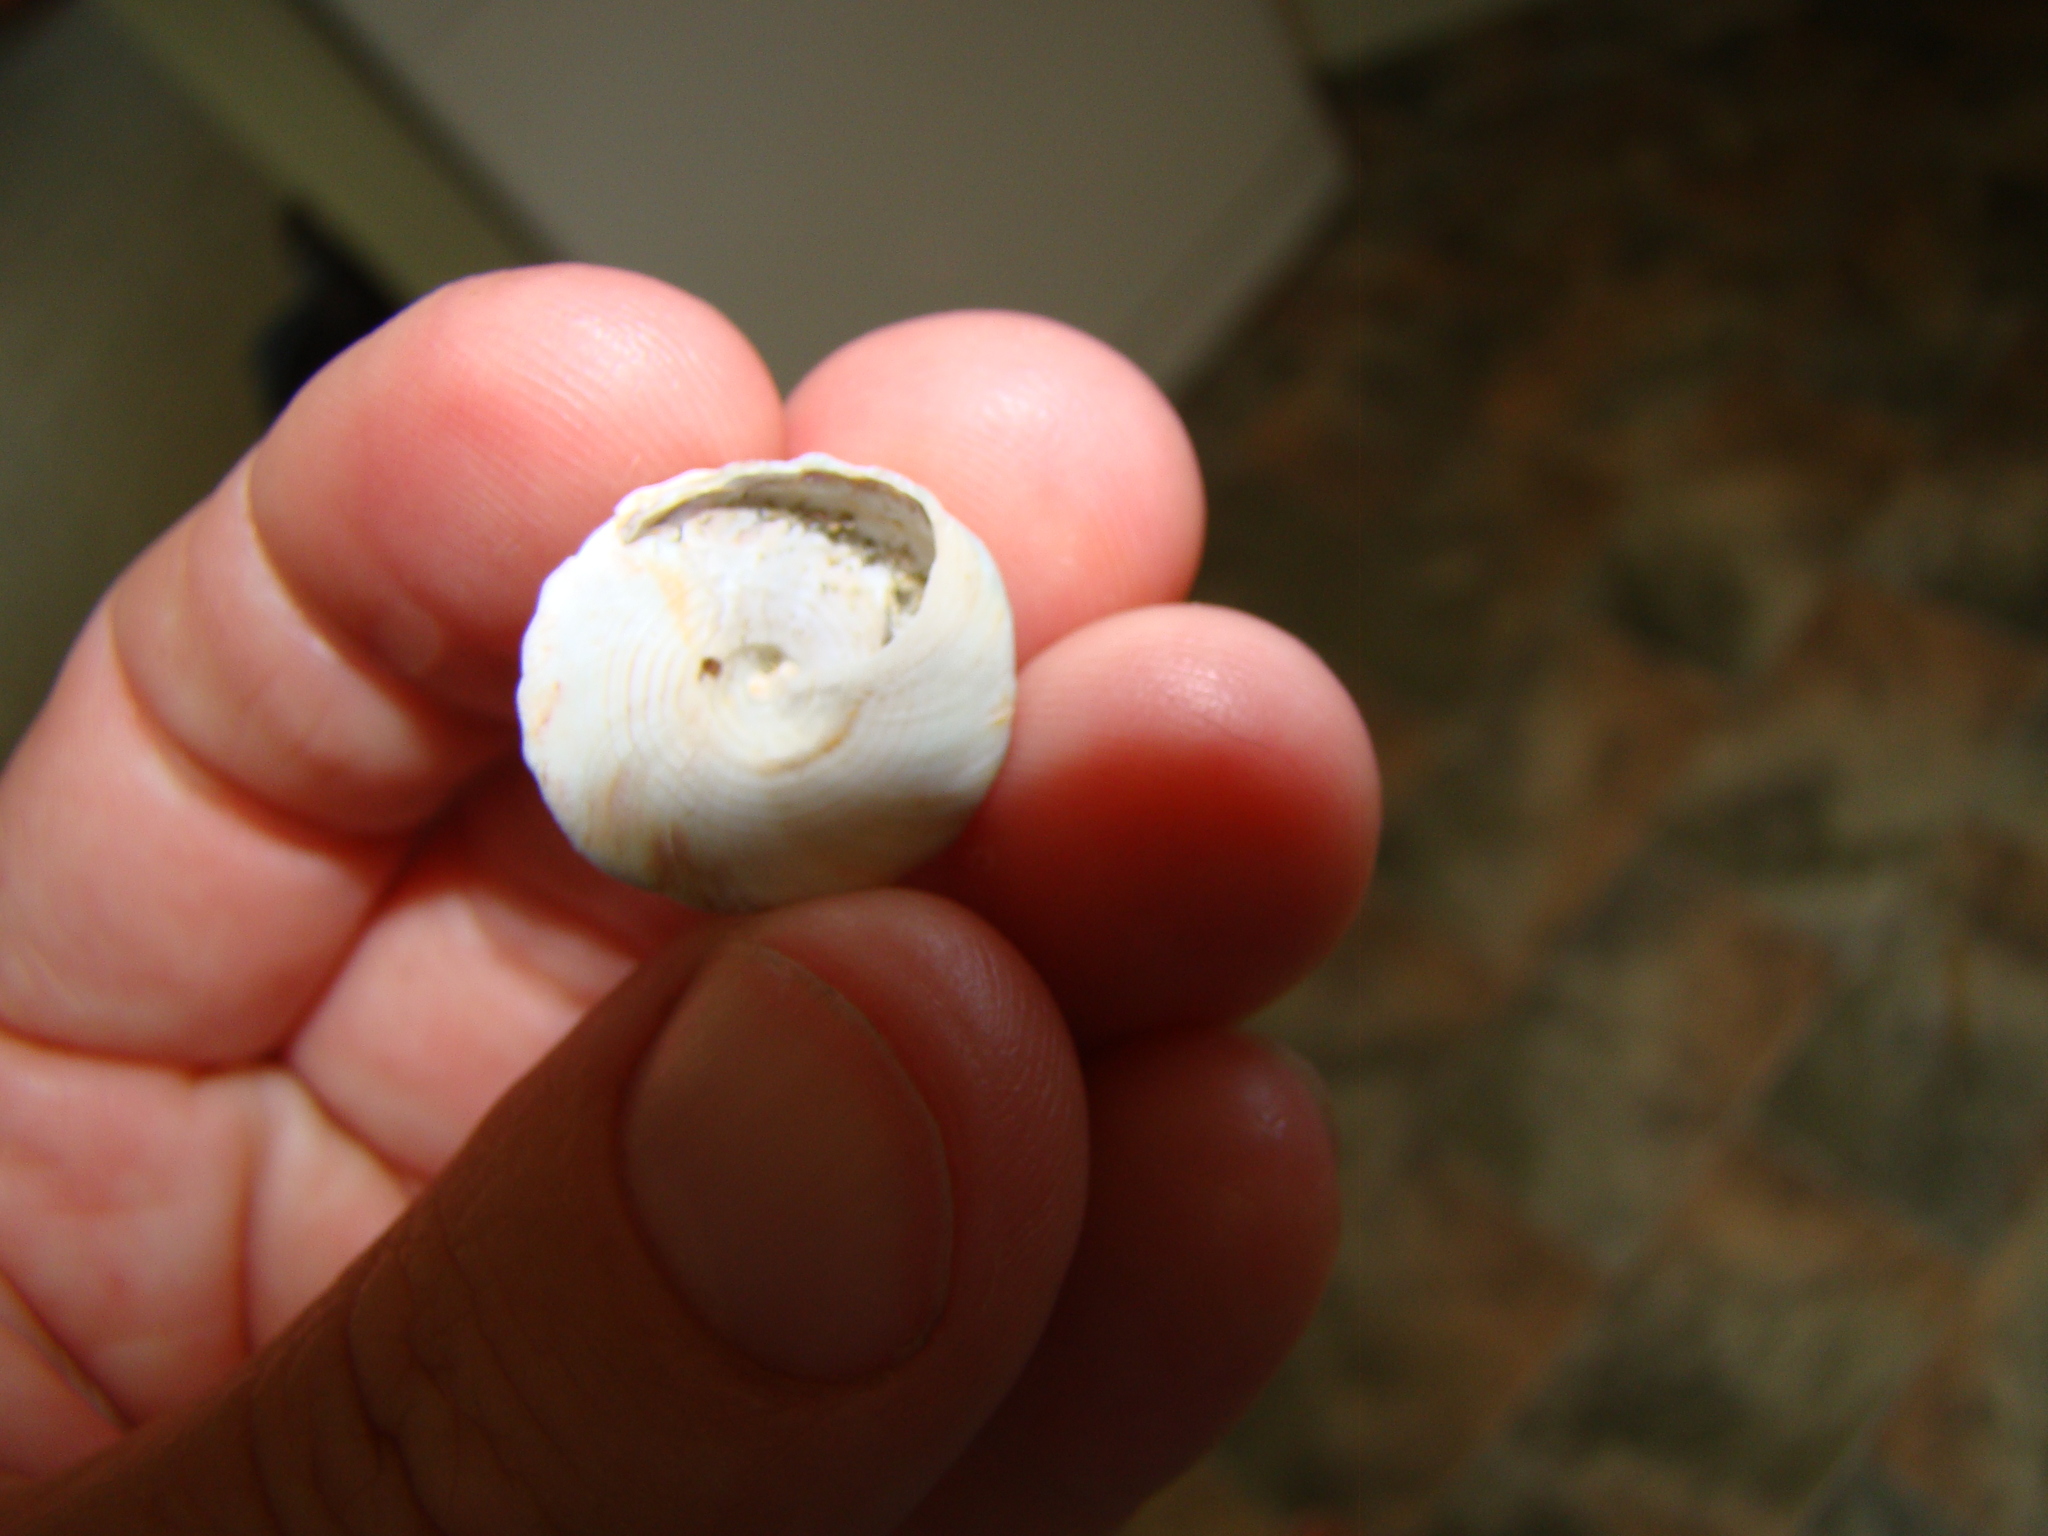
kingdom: Animalia
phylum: Mollusca
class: Gastropoda
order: Trochida
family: Trochidae
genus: Coelotrochus
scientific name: Coelotrochus viridis
